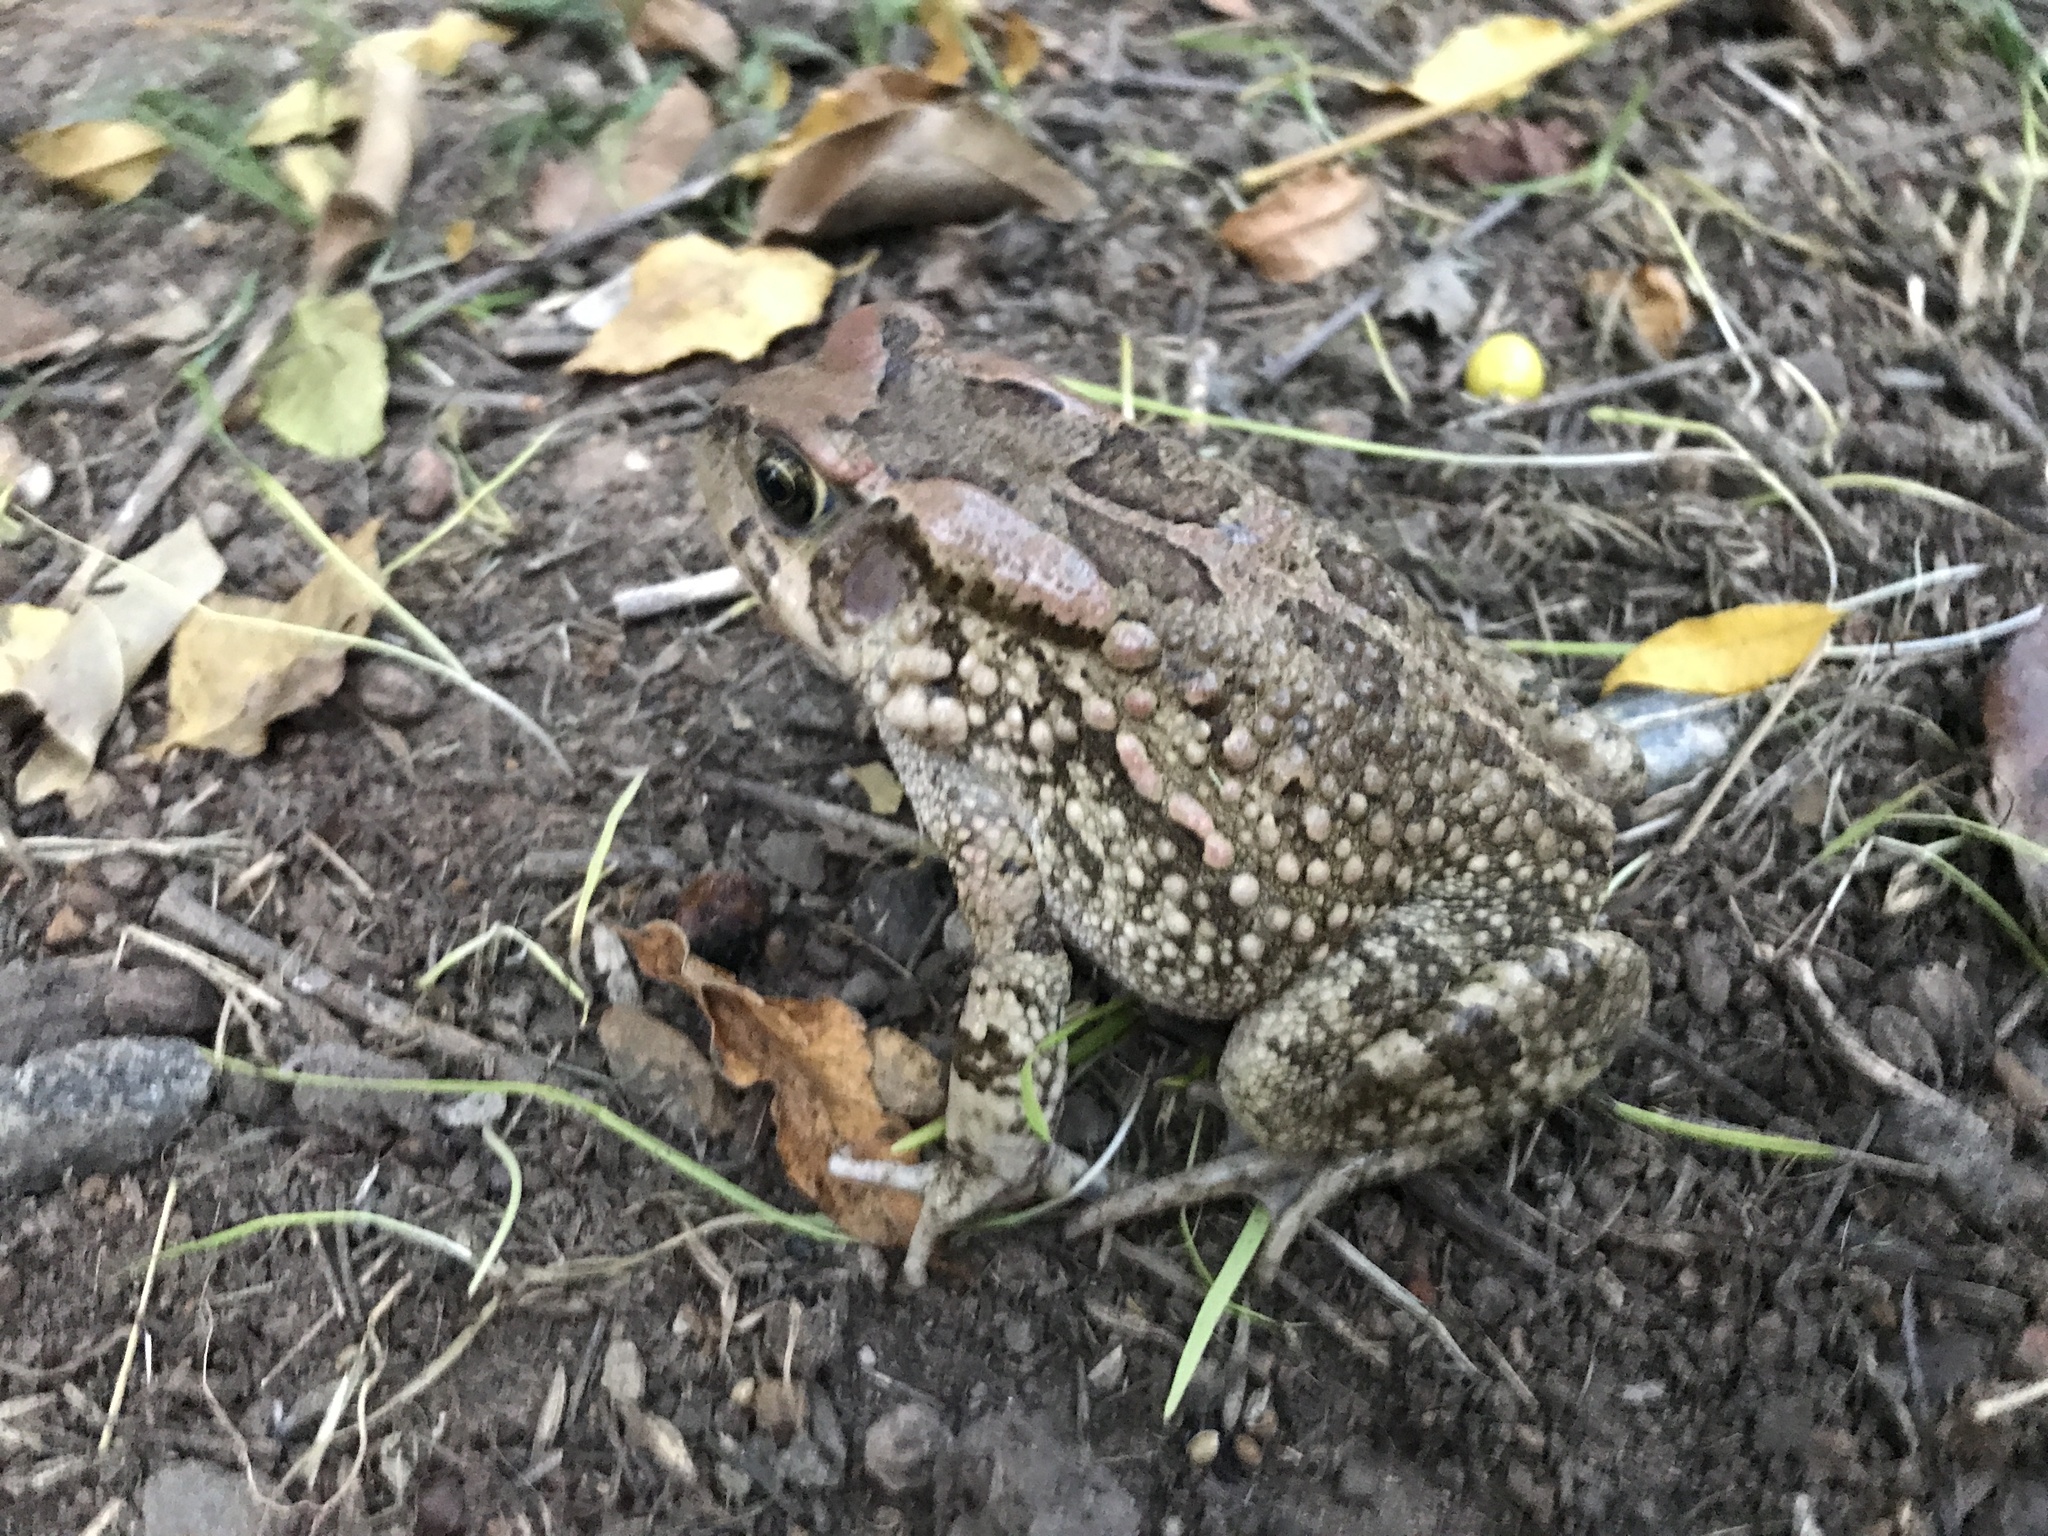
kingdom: Animalia
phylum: Chordata
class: Amphibia
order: Anura
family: Bufonidae
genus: Sclerophrys
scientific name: Sclerophrys capensis
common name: Ranger’s toad
